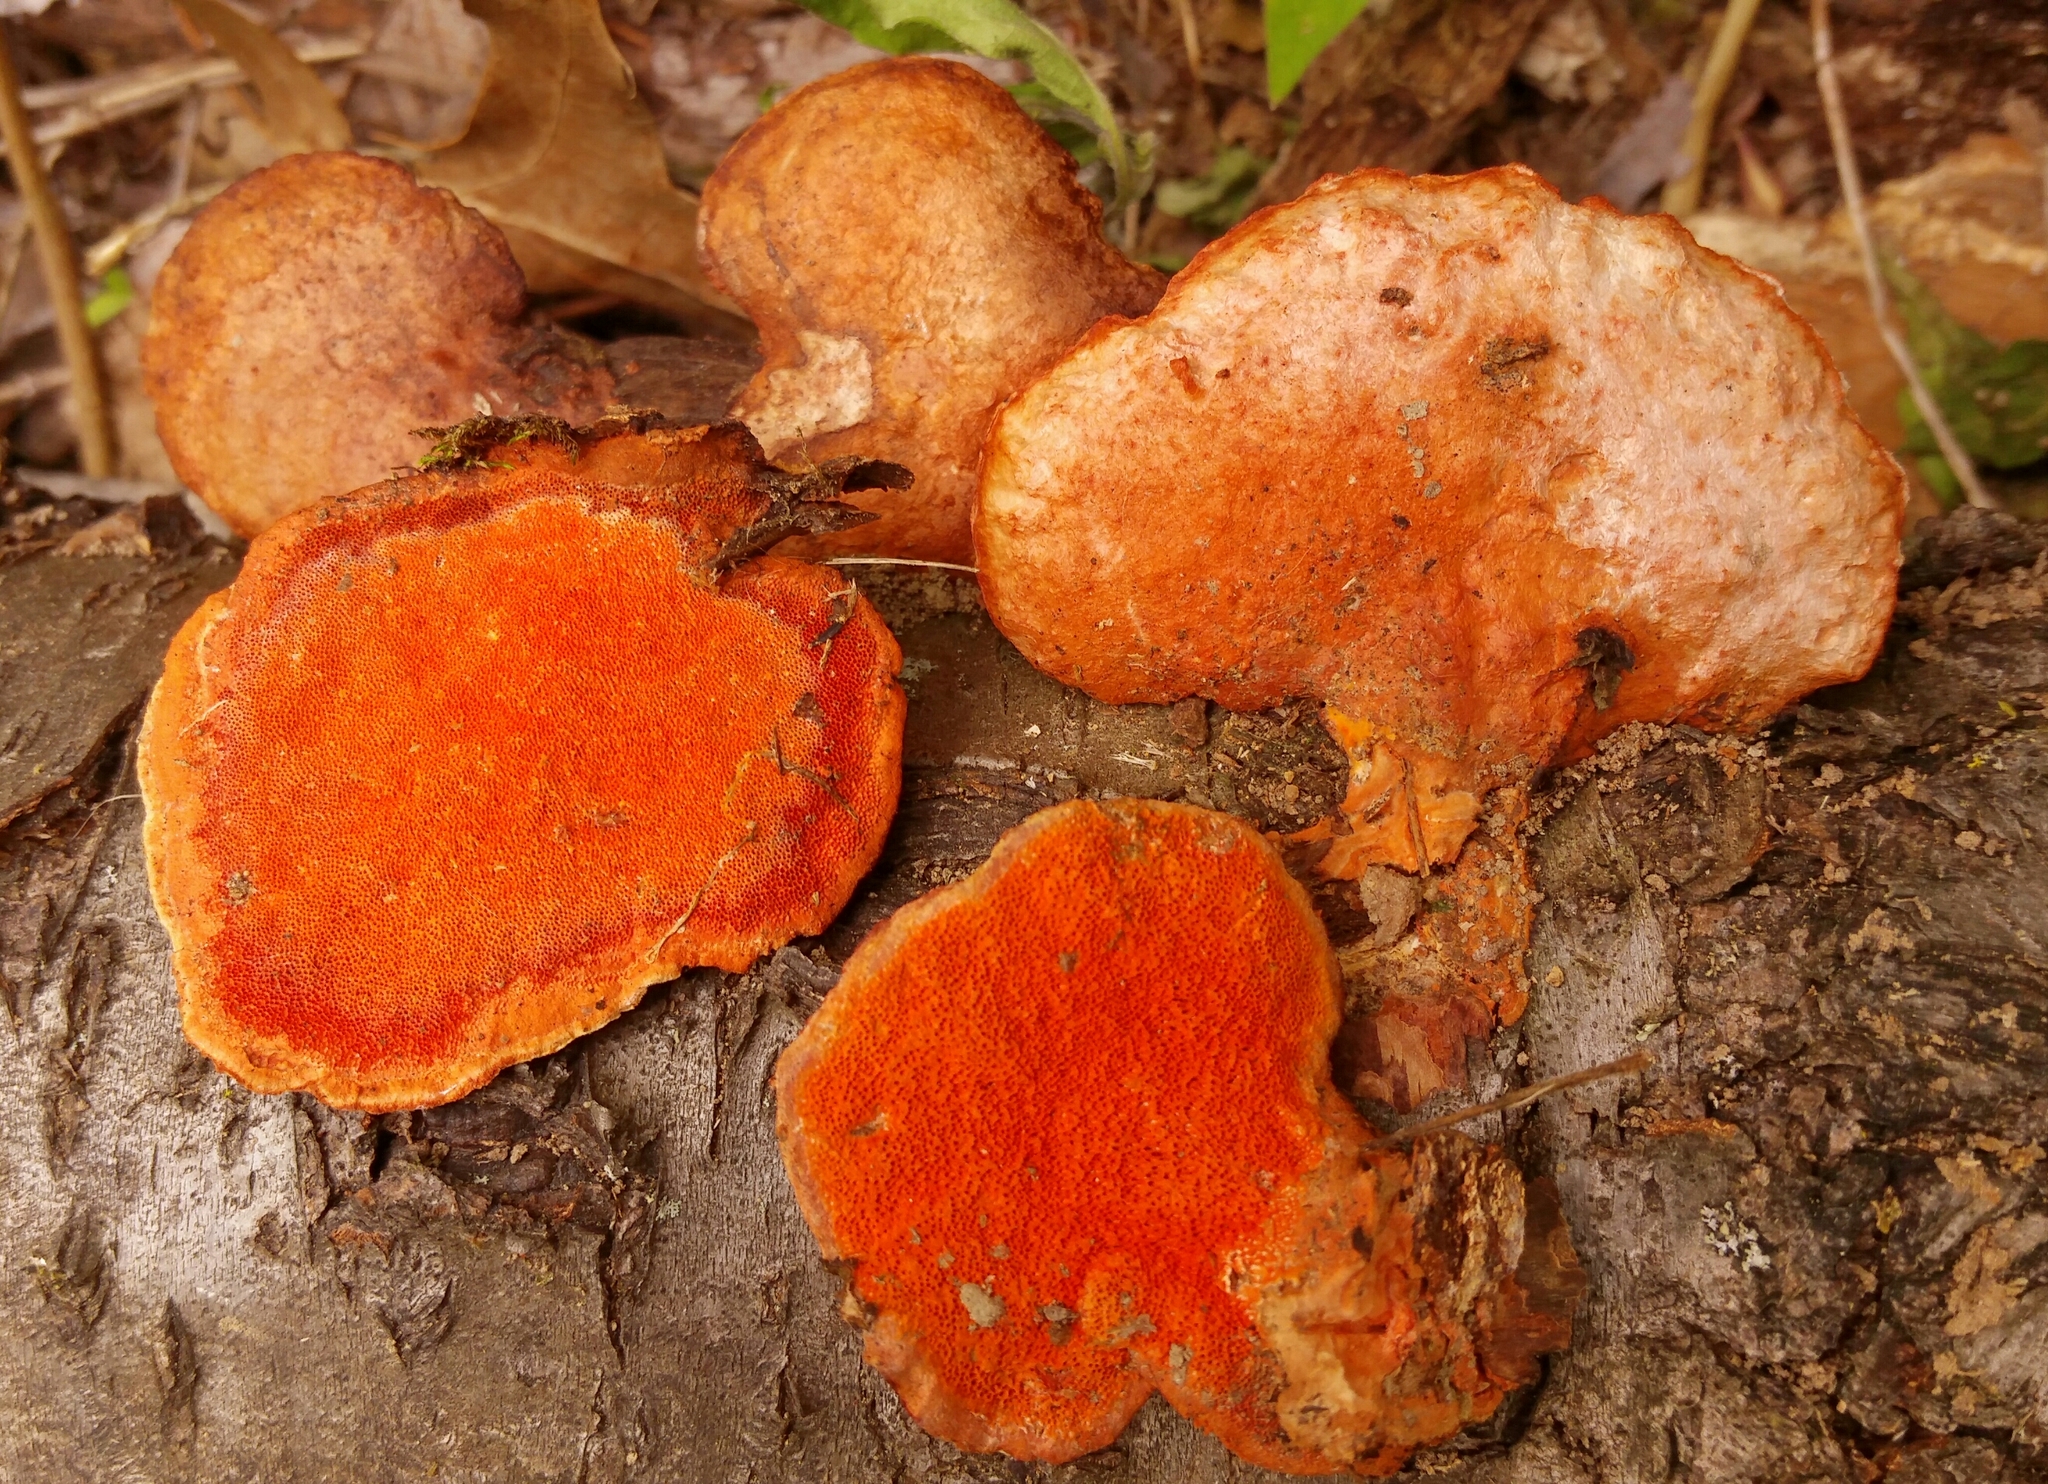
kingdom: Fungi
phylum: Basidiomycota
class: Agaricomycetes
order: Polyporales
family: Polyporaceae
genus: Trametes
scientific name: Trametes cinnabarina
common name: Northern cinnabar polypore
